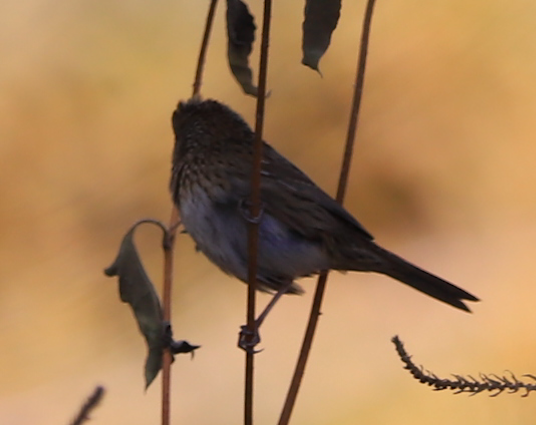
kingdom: Animalia
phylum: Chordata
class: Aves
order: Passeriformes
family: Passerellidae
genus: Melospiza
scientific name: Melospiza lincolnii
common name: Lincoln's sparrow
